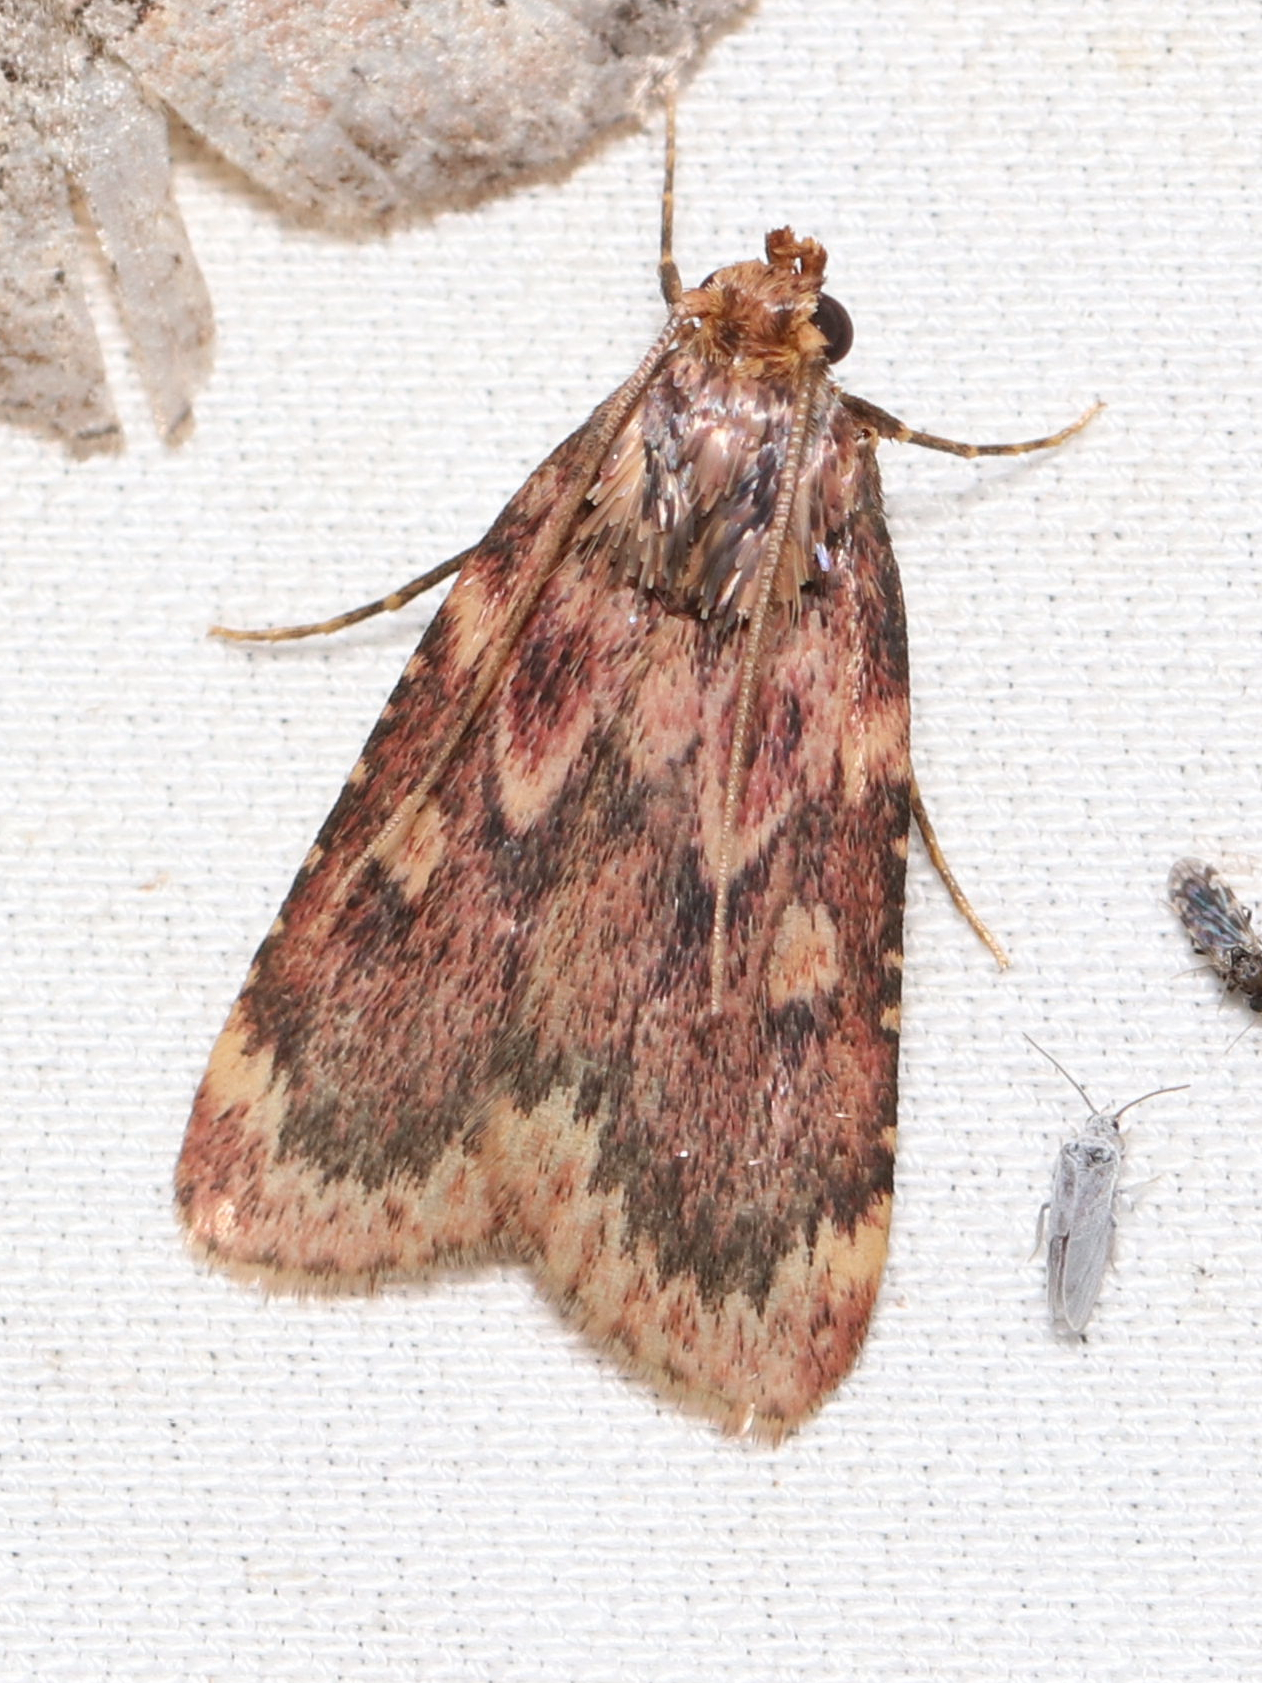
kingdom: Animalia
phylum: Arthropoda
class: Insecta
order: Lepidoptera
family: Pyralidae
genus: Aglossa
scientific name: Aglossa cuprina
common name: Grease moth
